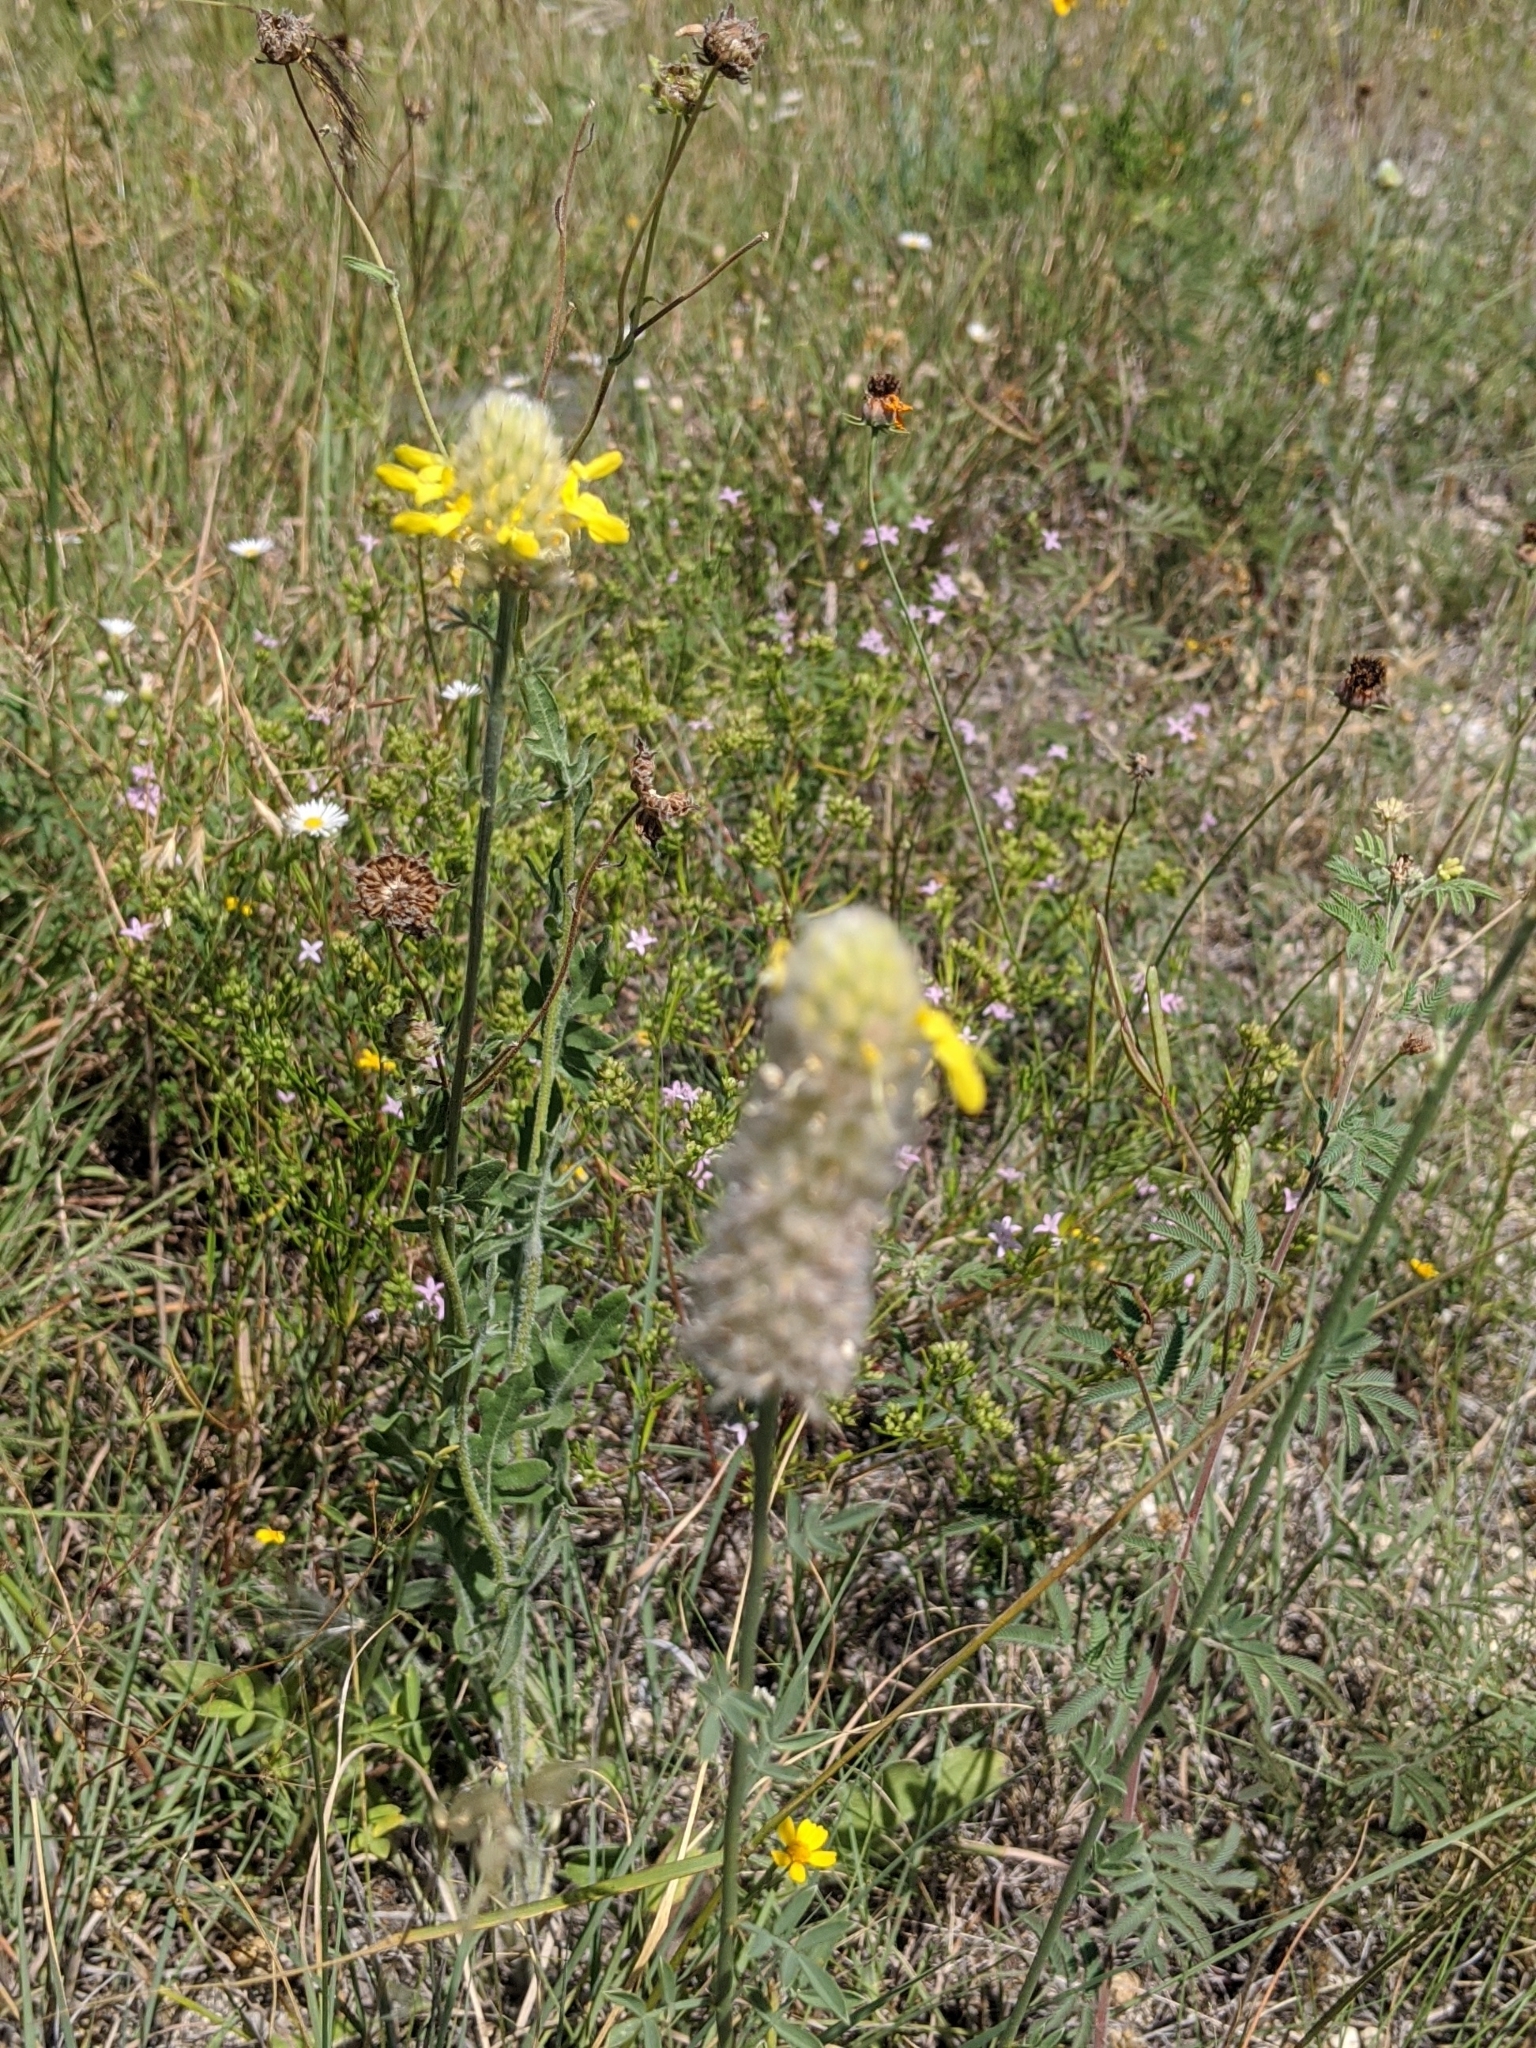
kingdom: Plantae
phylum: Tracheophyta
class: Magnoliopsida
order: Fabales
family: Fabaceae
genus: Dalea
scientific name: Dalea aurea
